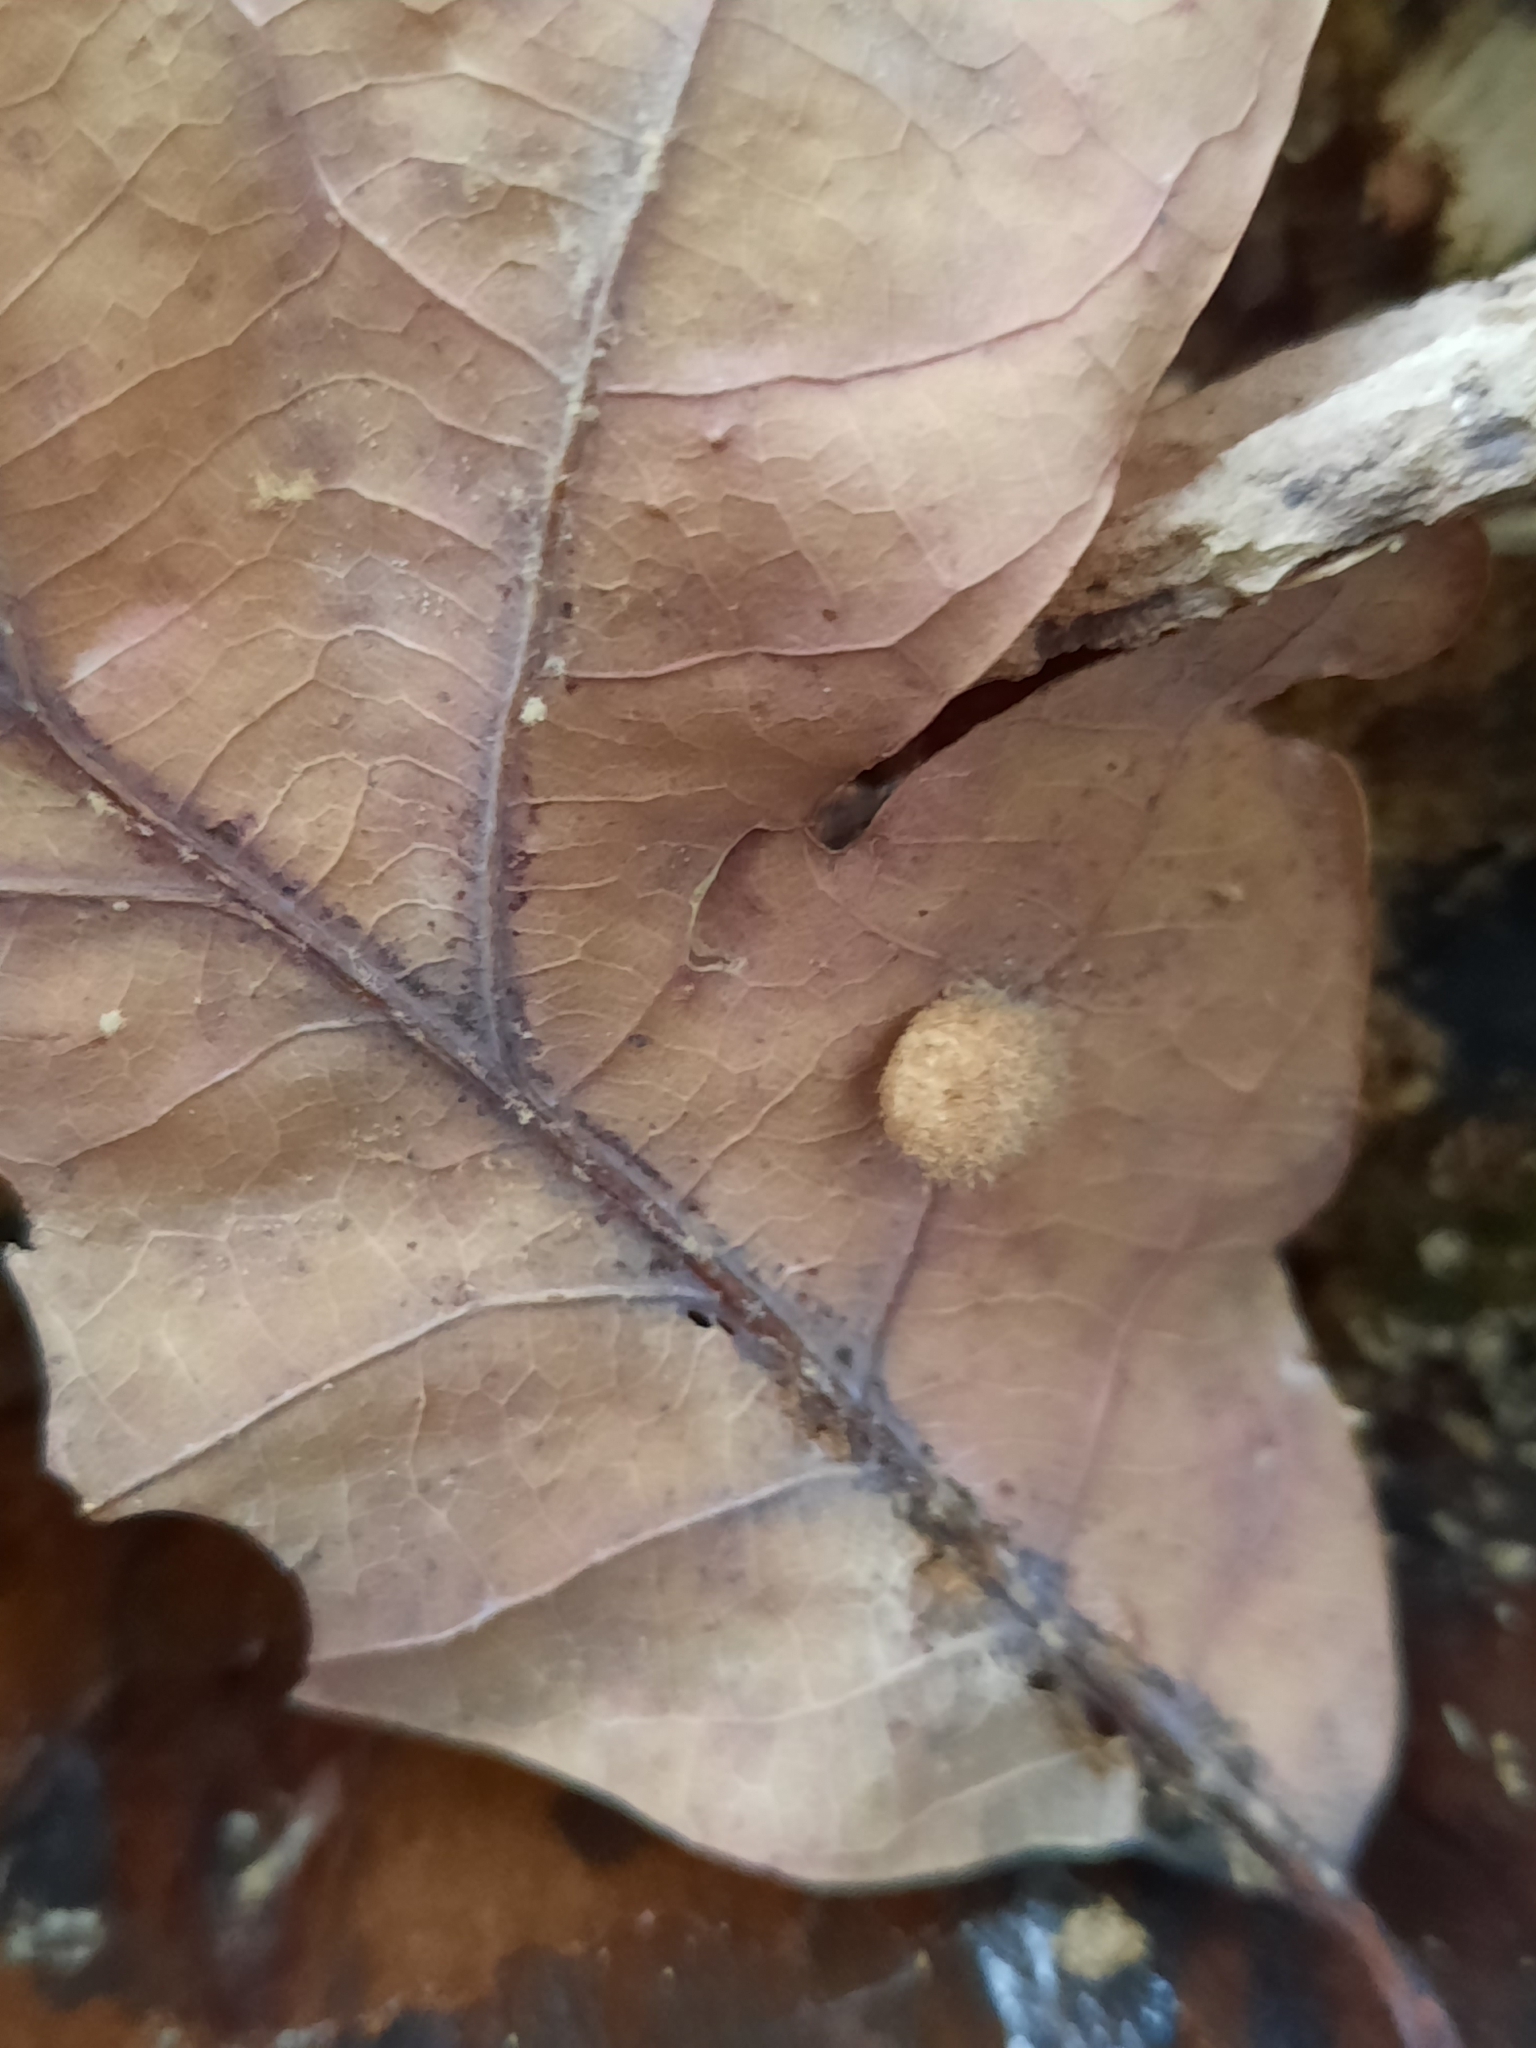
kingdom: Animalia
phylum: Arthropoda
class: Insecta
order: Hymenoptera
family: Cynipidae
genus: Philonix
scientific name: Philonix fulvicollis
